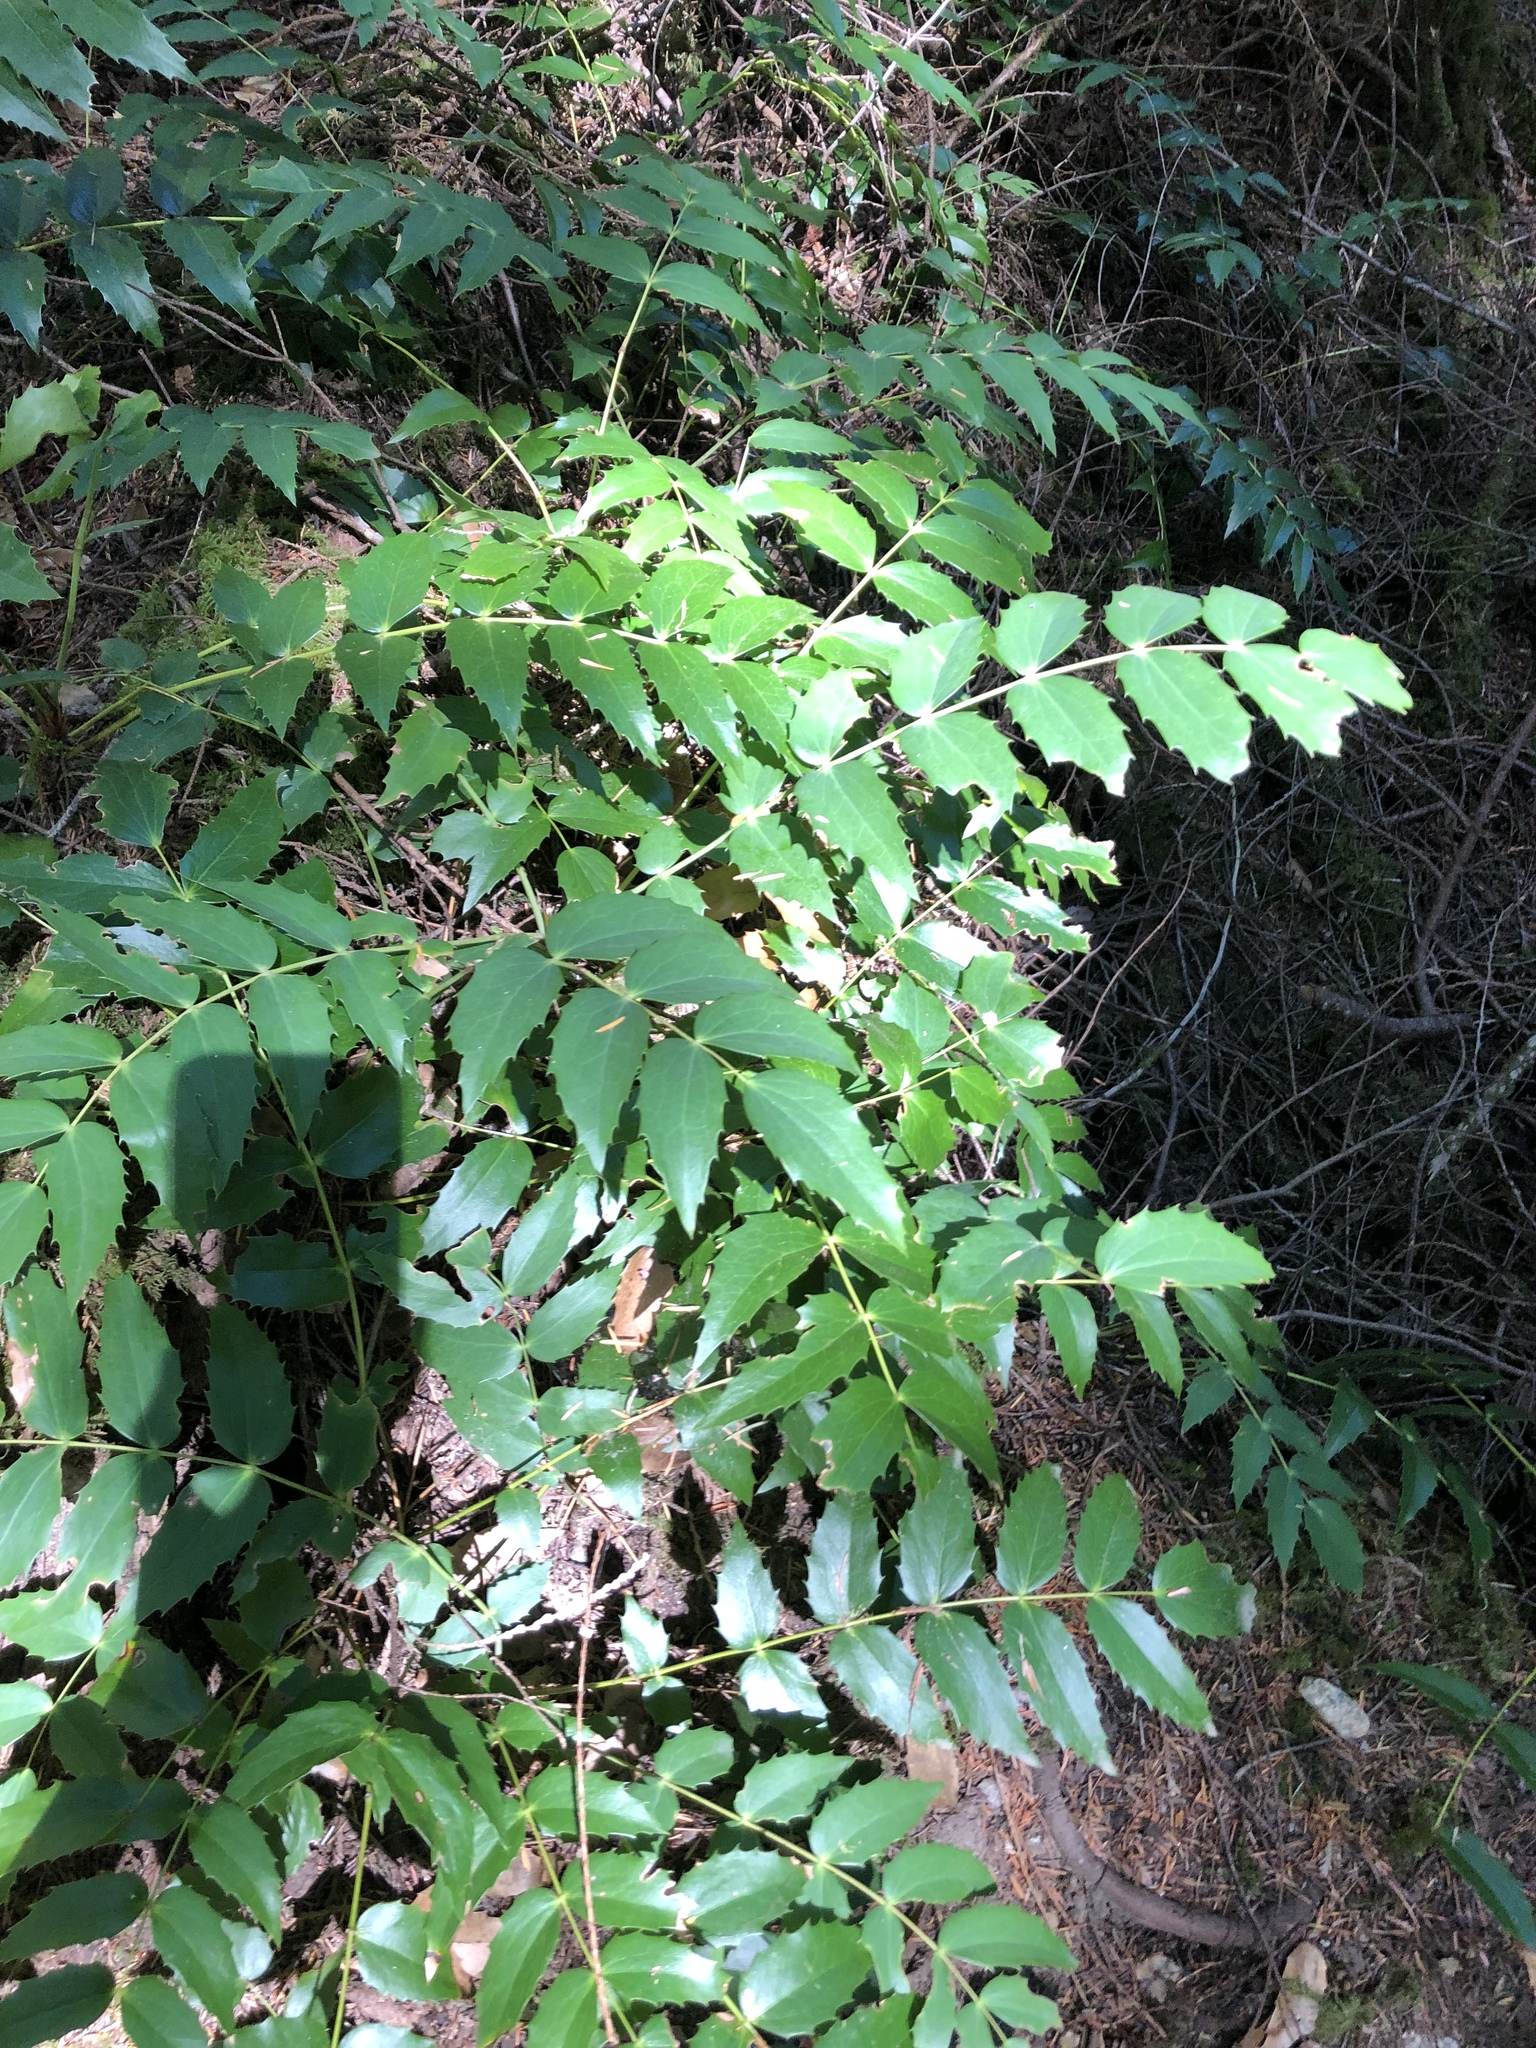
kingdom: Plantae
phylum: Tracheophyta
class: Magnoliopsida
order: Ranunculales
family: Berberidaceae
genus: Mahonia
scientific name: Mahonia nervosa
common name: Cascade oregon-grape
